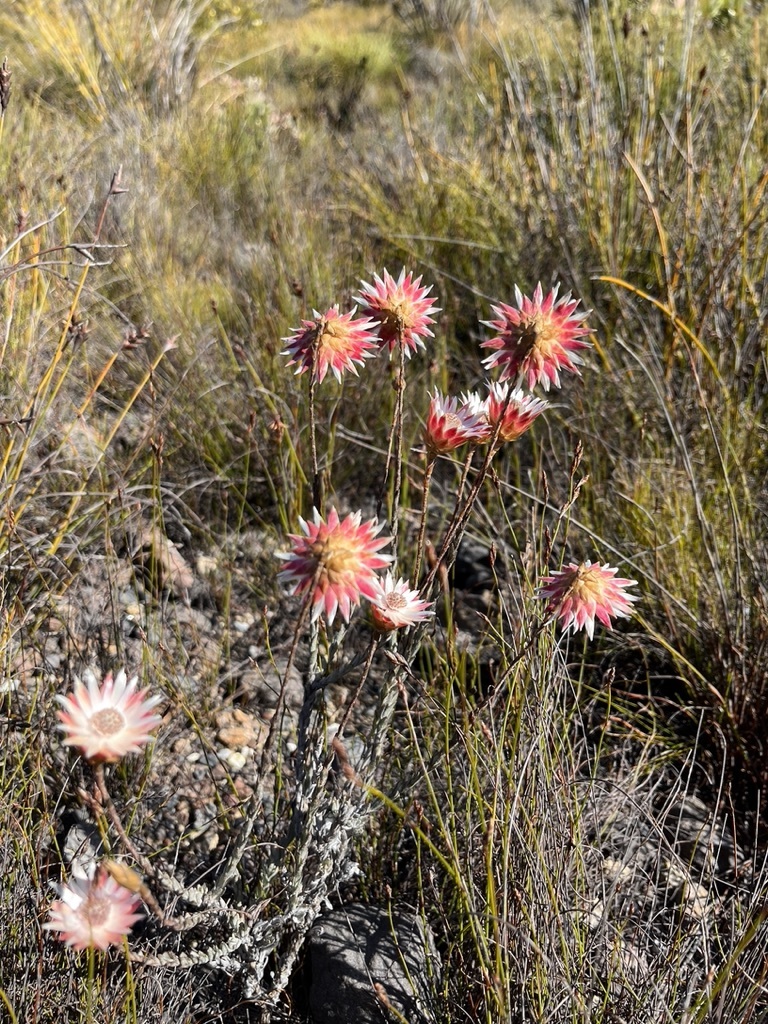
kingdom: Plantae
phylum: Tracheophyta
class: Magnoliopsida
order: Asterales
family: Asteraceae
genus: Edmondia
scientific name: Edmondia pinifolia
